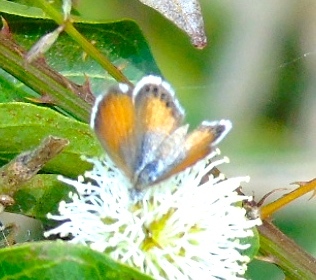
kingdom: Animalia
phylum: Arthropoda
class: Insecta
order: Lepidoptera
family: Lycaenidae
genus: Brephidium
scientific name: Brephidium exilis
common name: Pygmy blue
